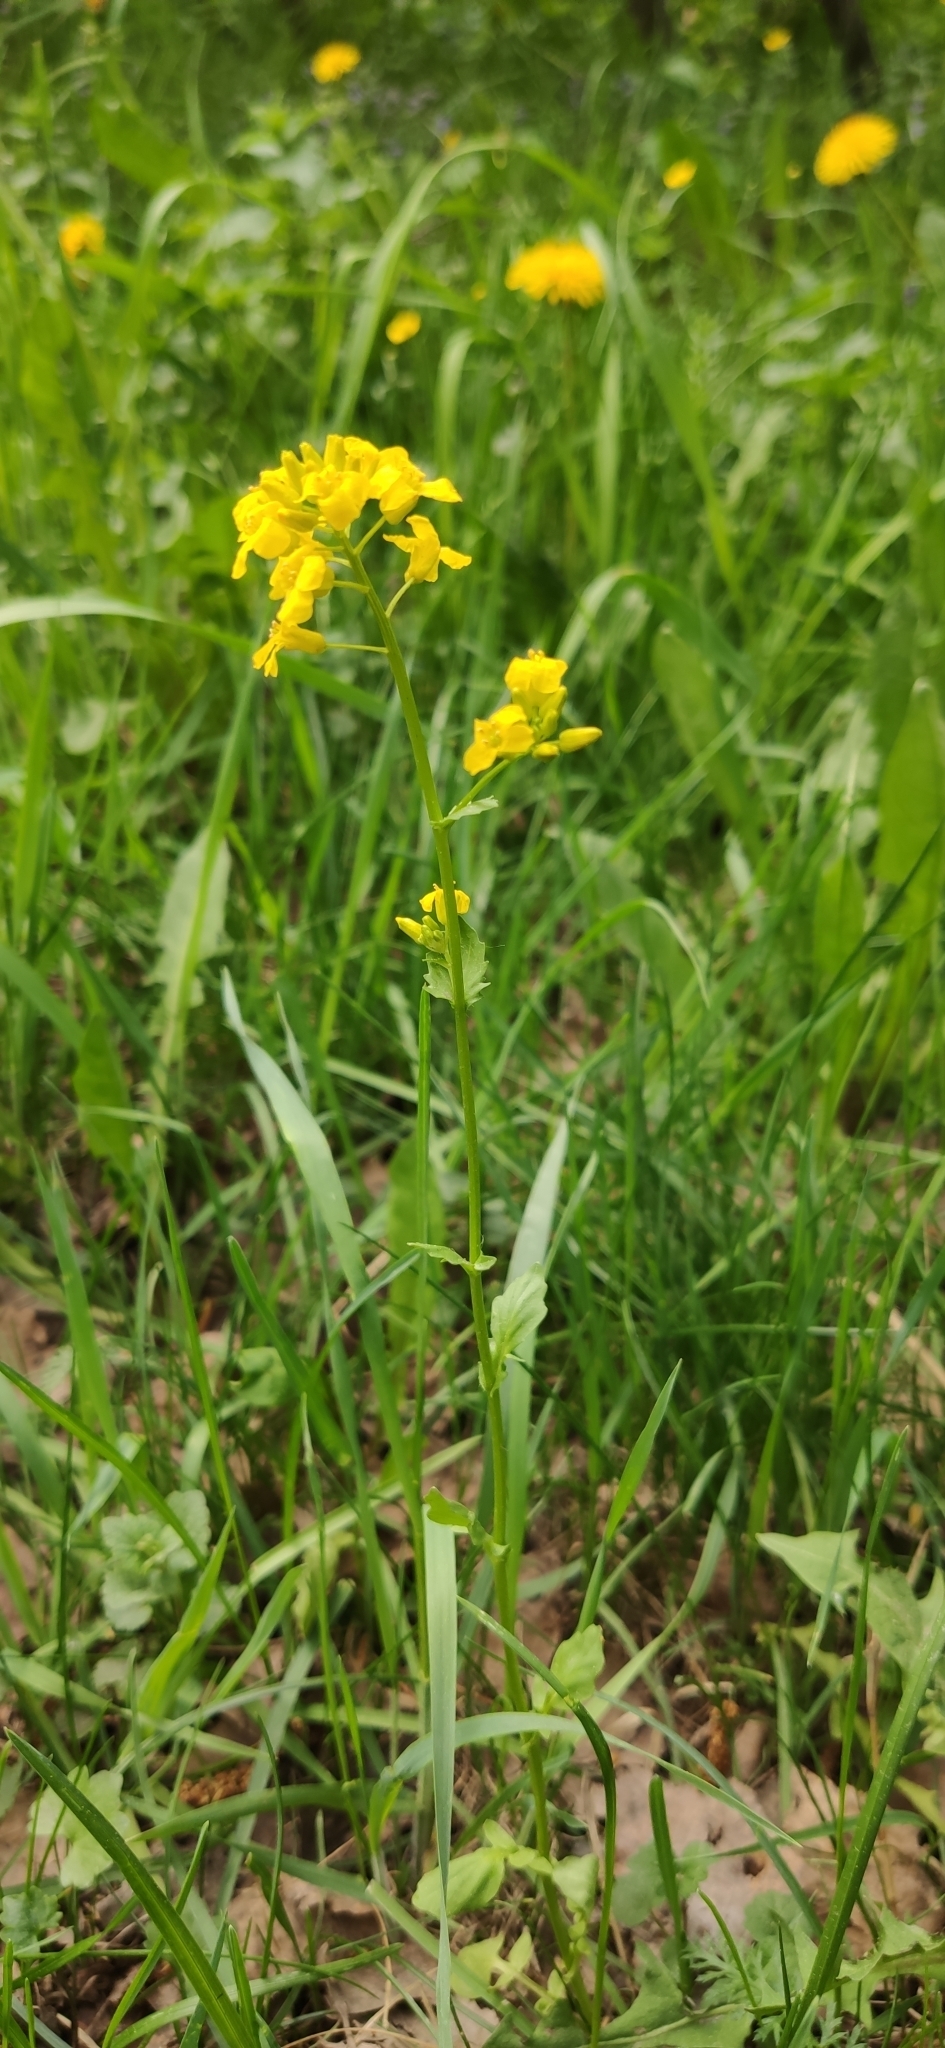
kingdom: Plantae
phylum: Tracheophyta
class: Magnoliopsida
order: Brassicales
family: Brassicaceae
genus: Barbarea
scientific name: Barbarea vulgaris
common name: Cressy-greens
